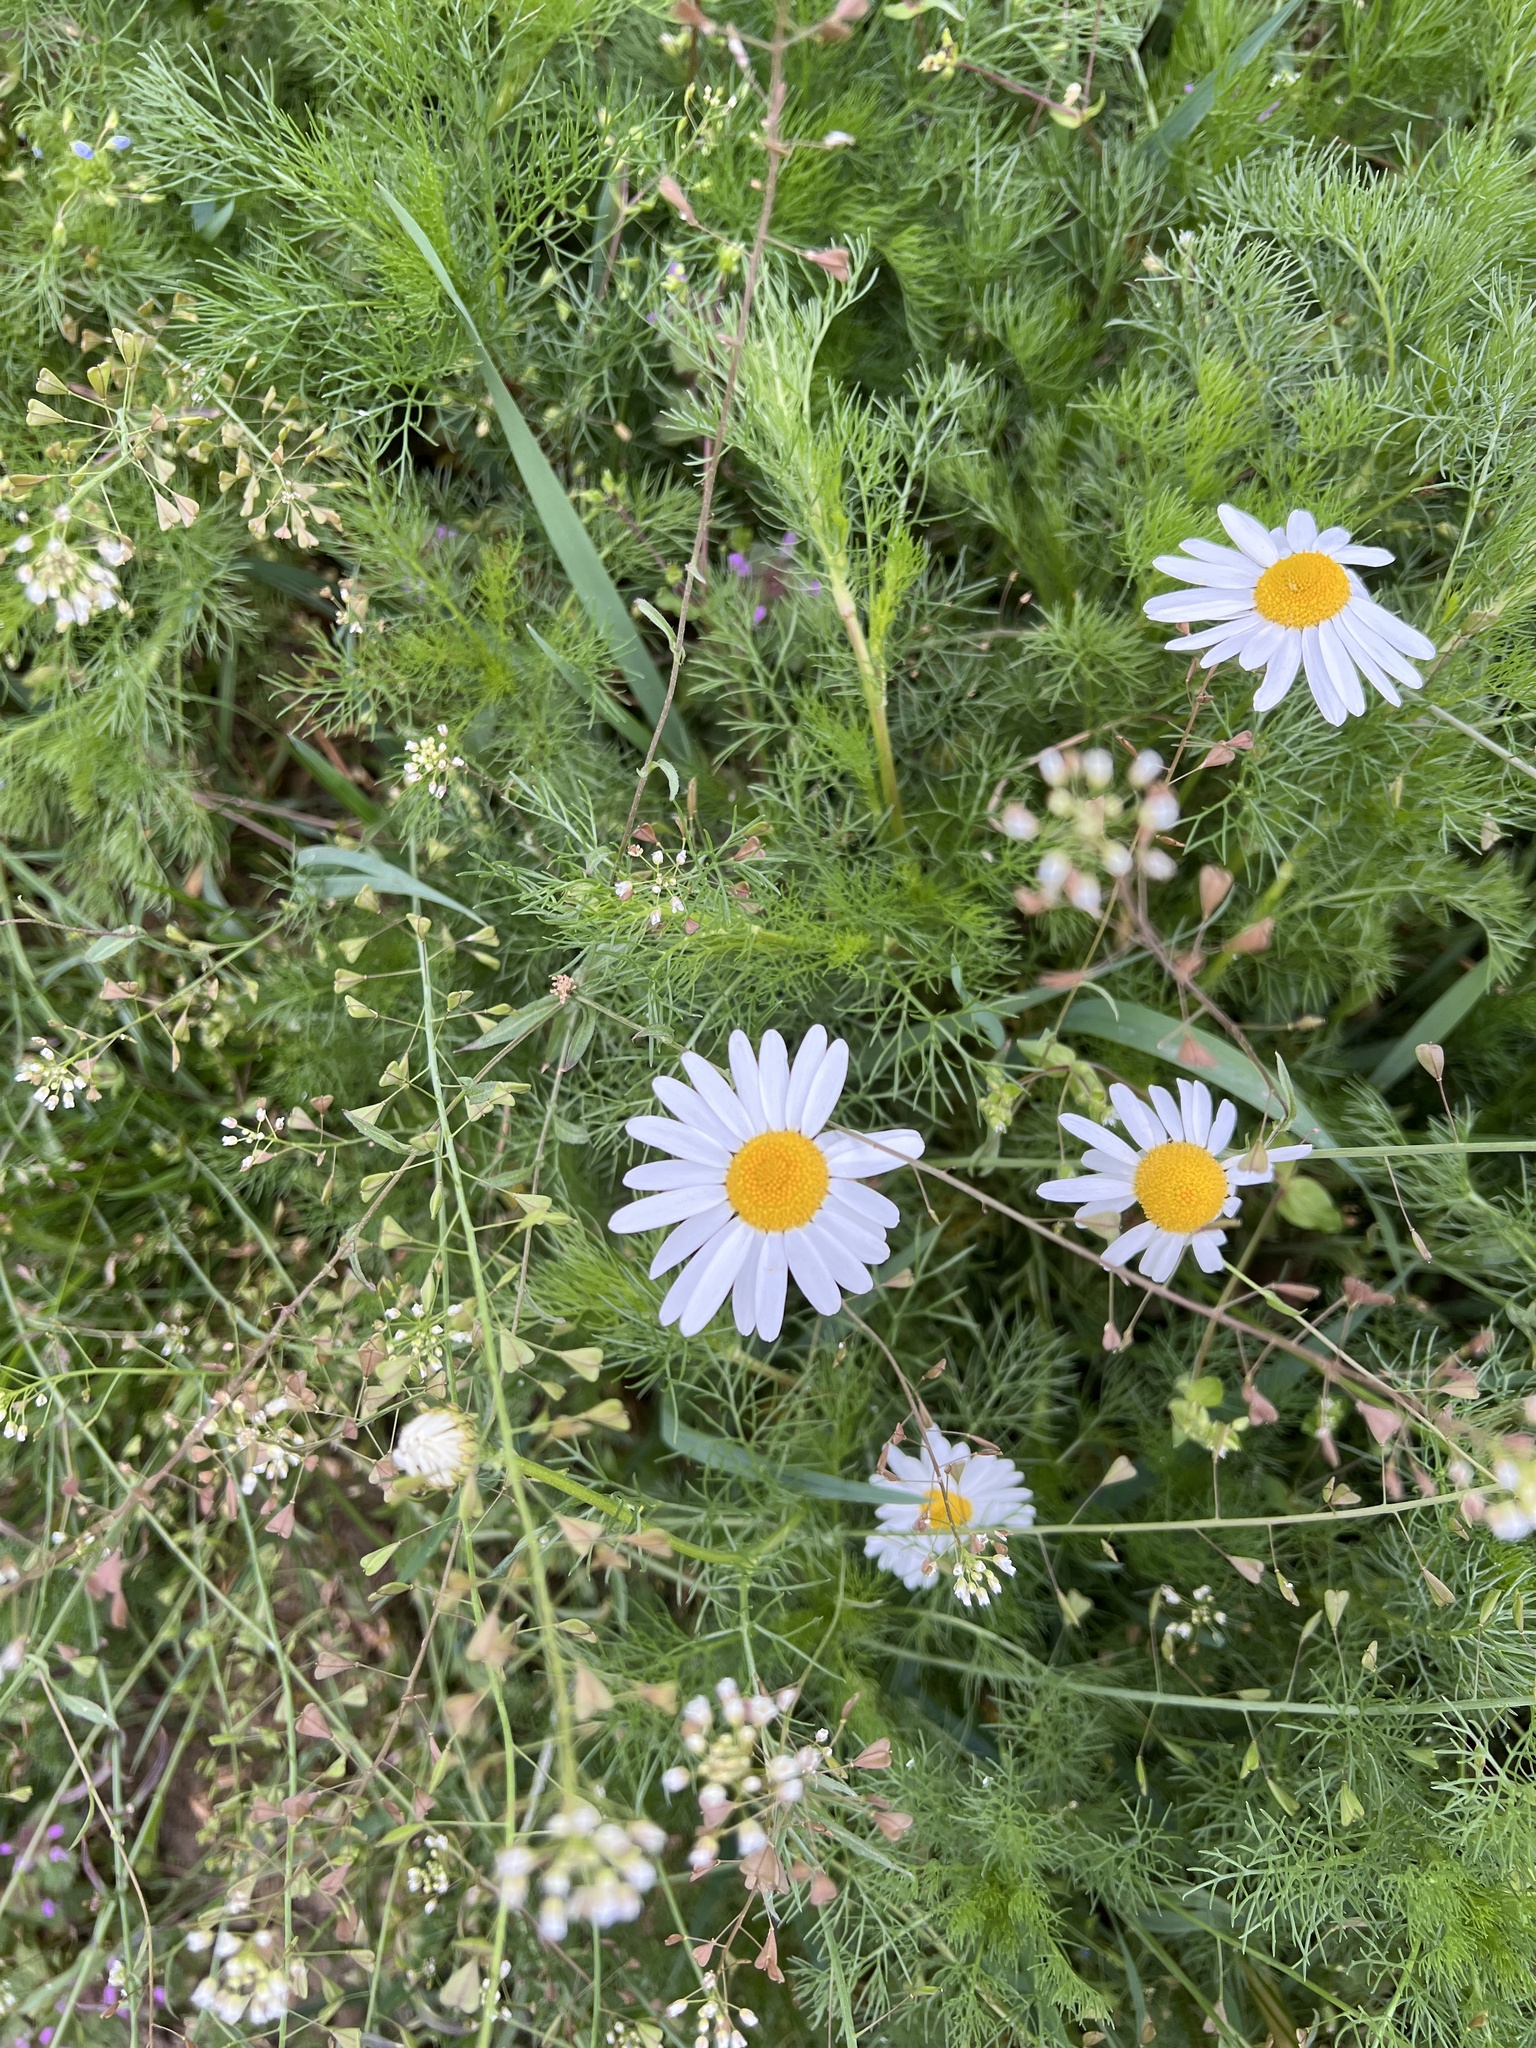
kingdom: Plantae
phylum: Tracheophyta
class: Magnoliopsida
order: Asterales
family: Asteraceae
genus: Tripleurospermum
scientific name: Tripleurospermum inodorum
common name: Scentless mayweed
